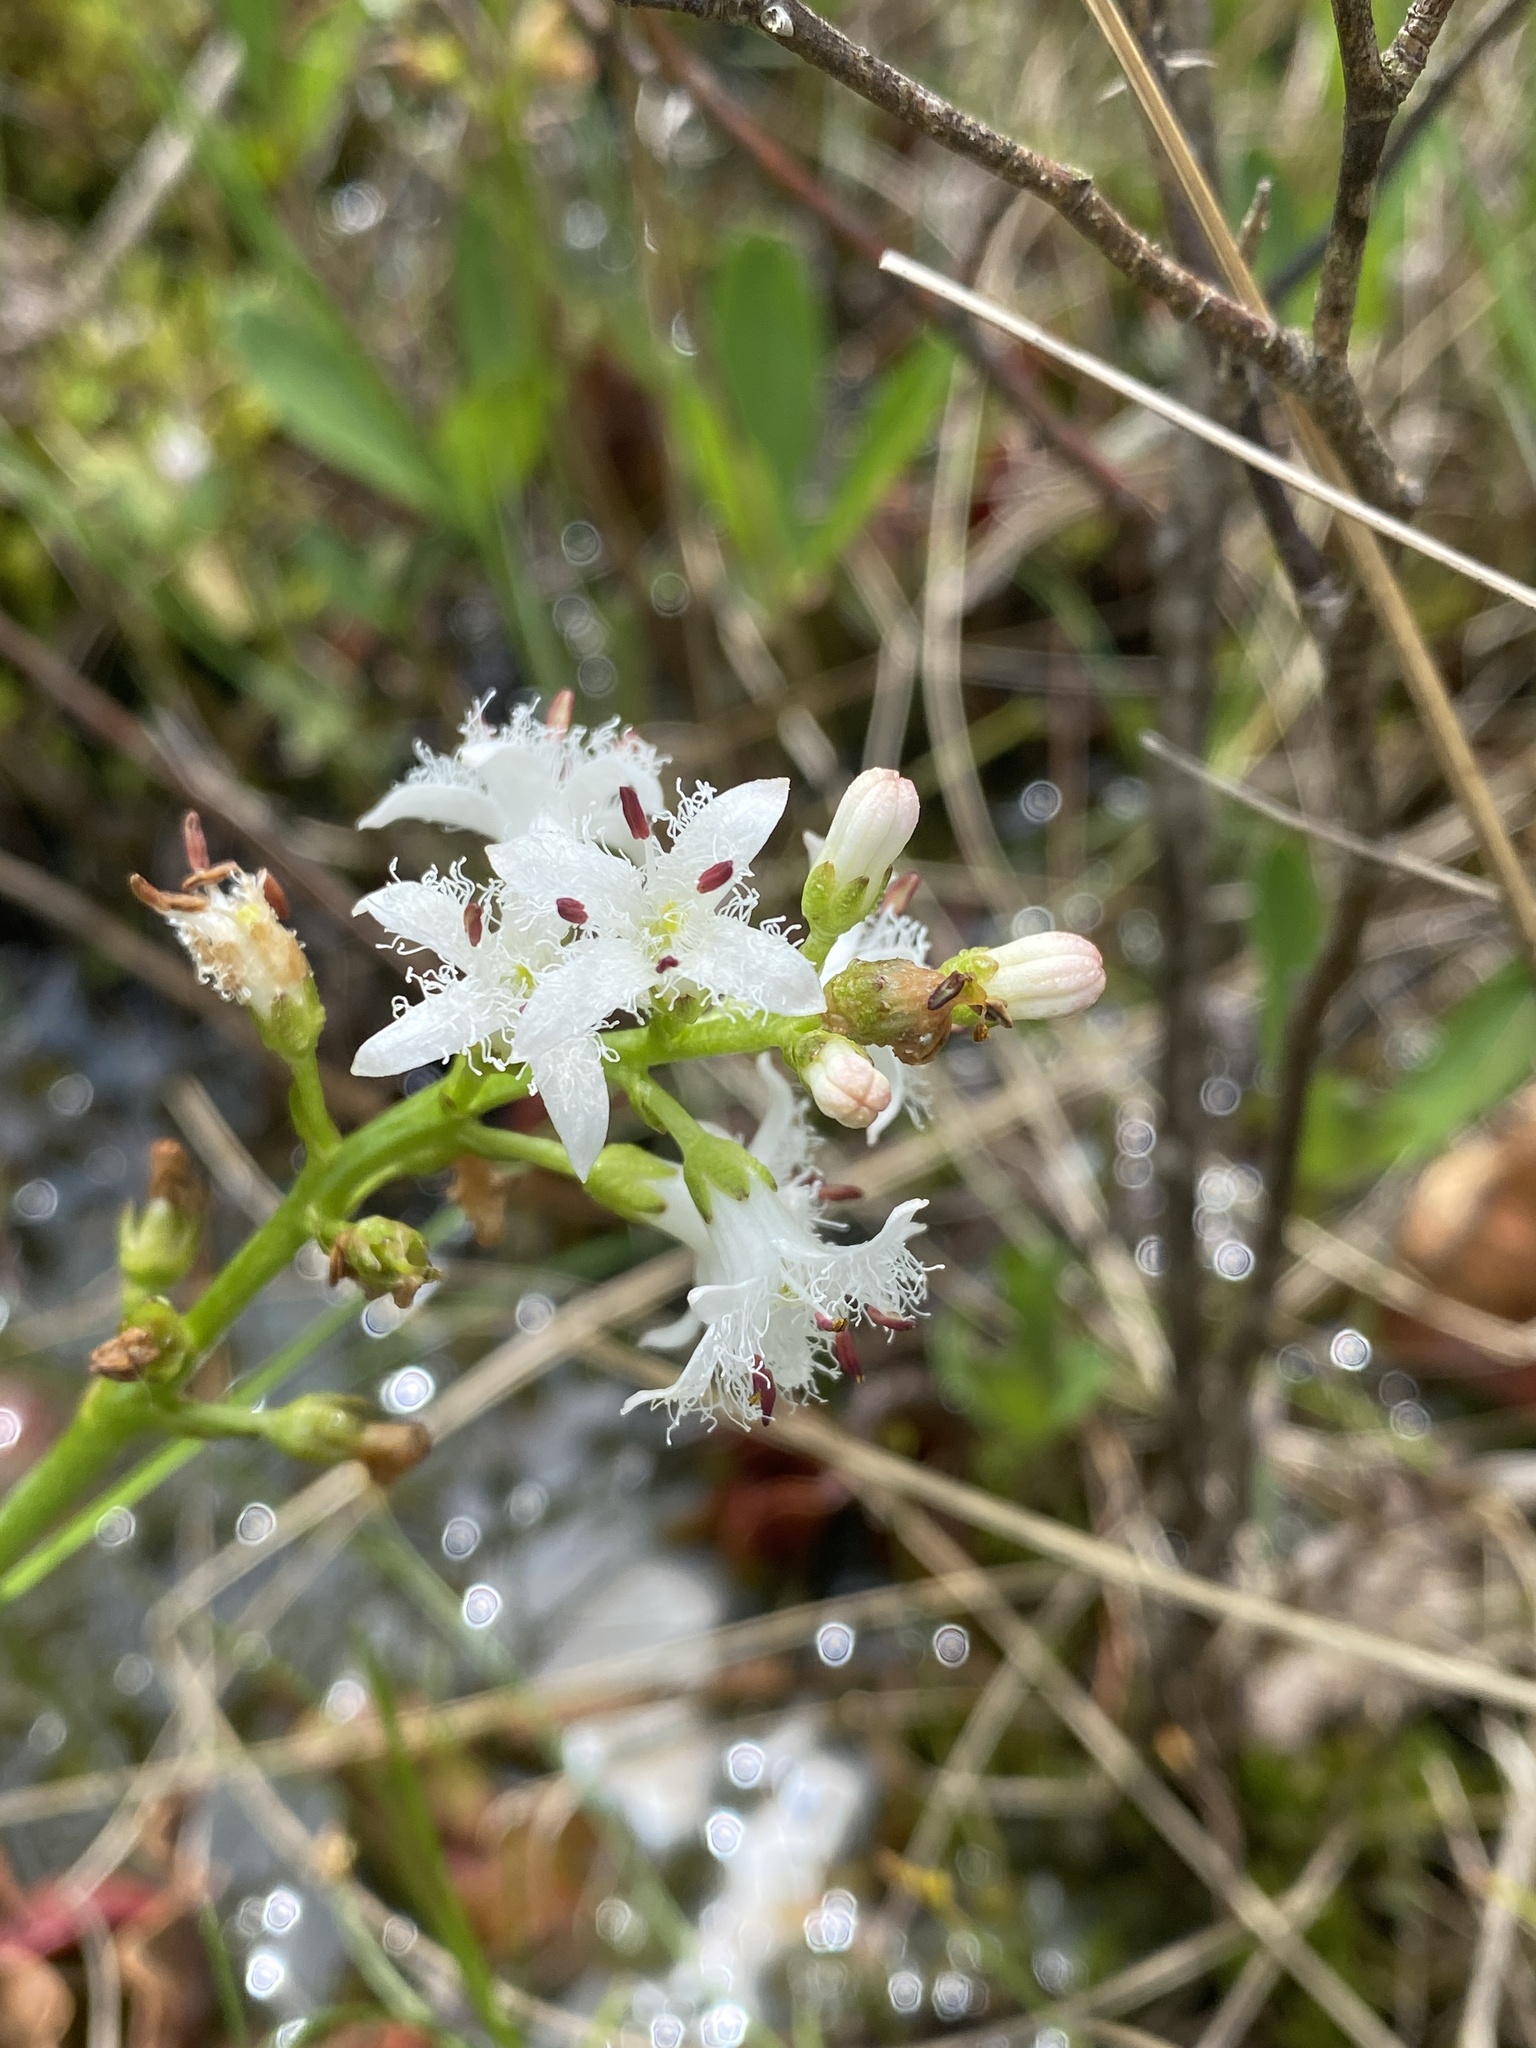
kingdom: Plantae
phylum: Tracheophyta
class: Magnoliopsida
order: Asterales
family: Menyanthaceae
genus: Menyanthes
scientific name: Menyanthes trifoliata
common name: Bogbean
